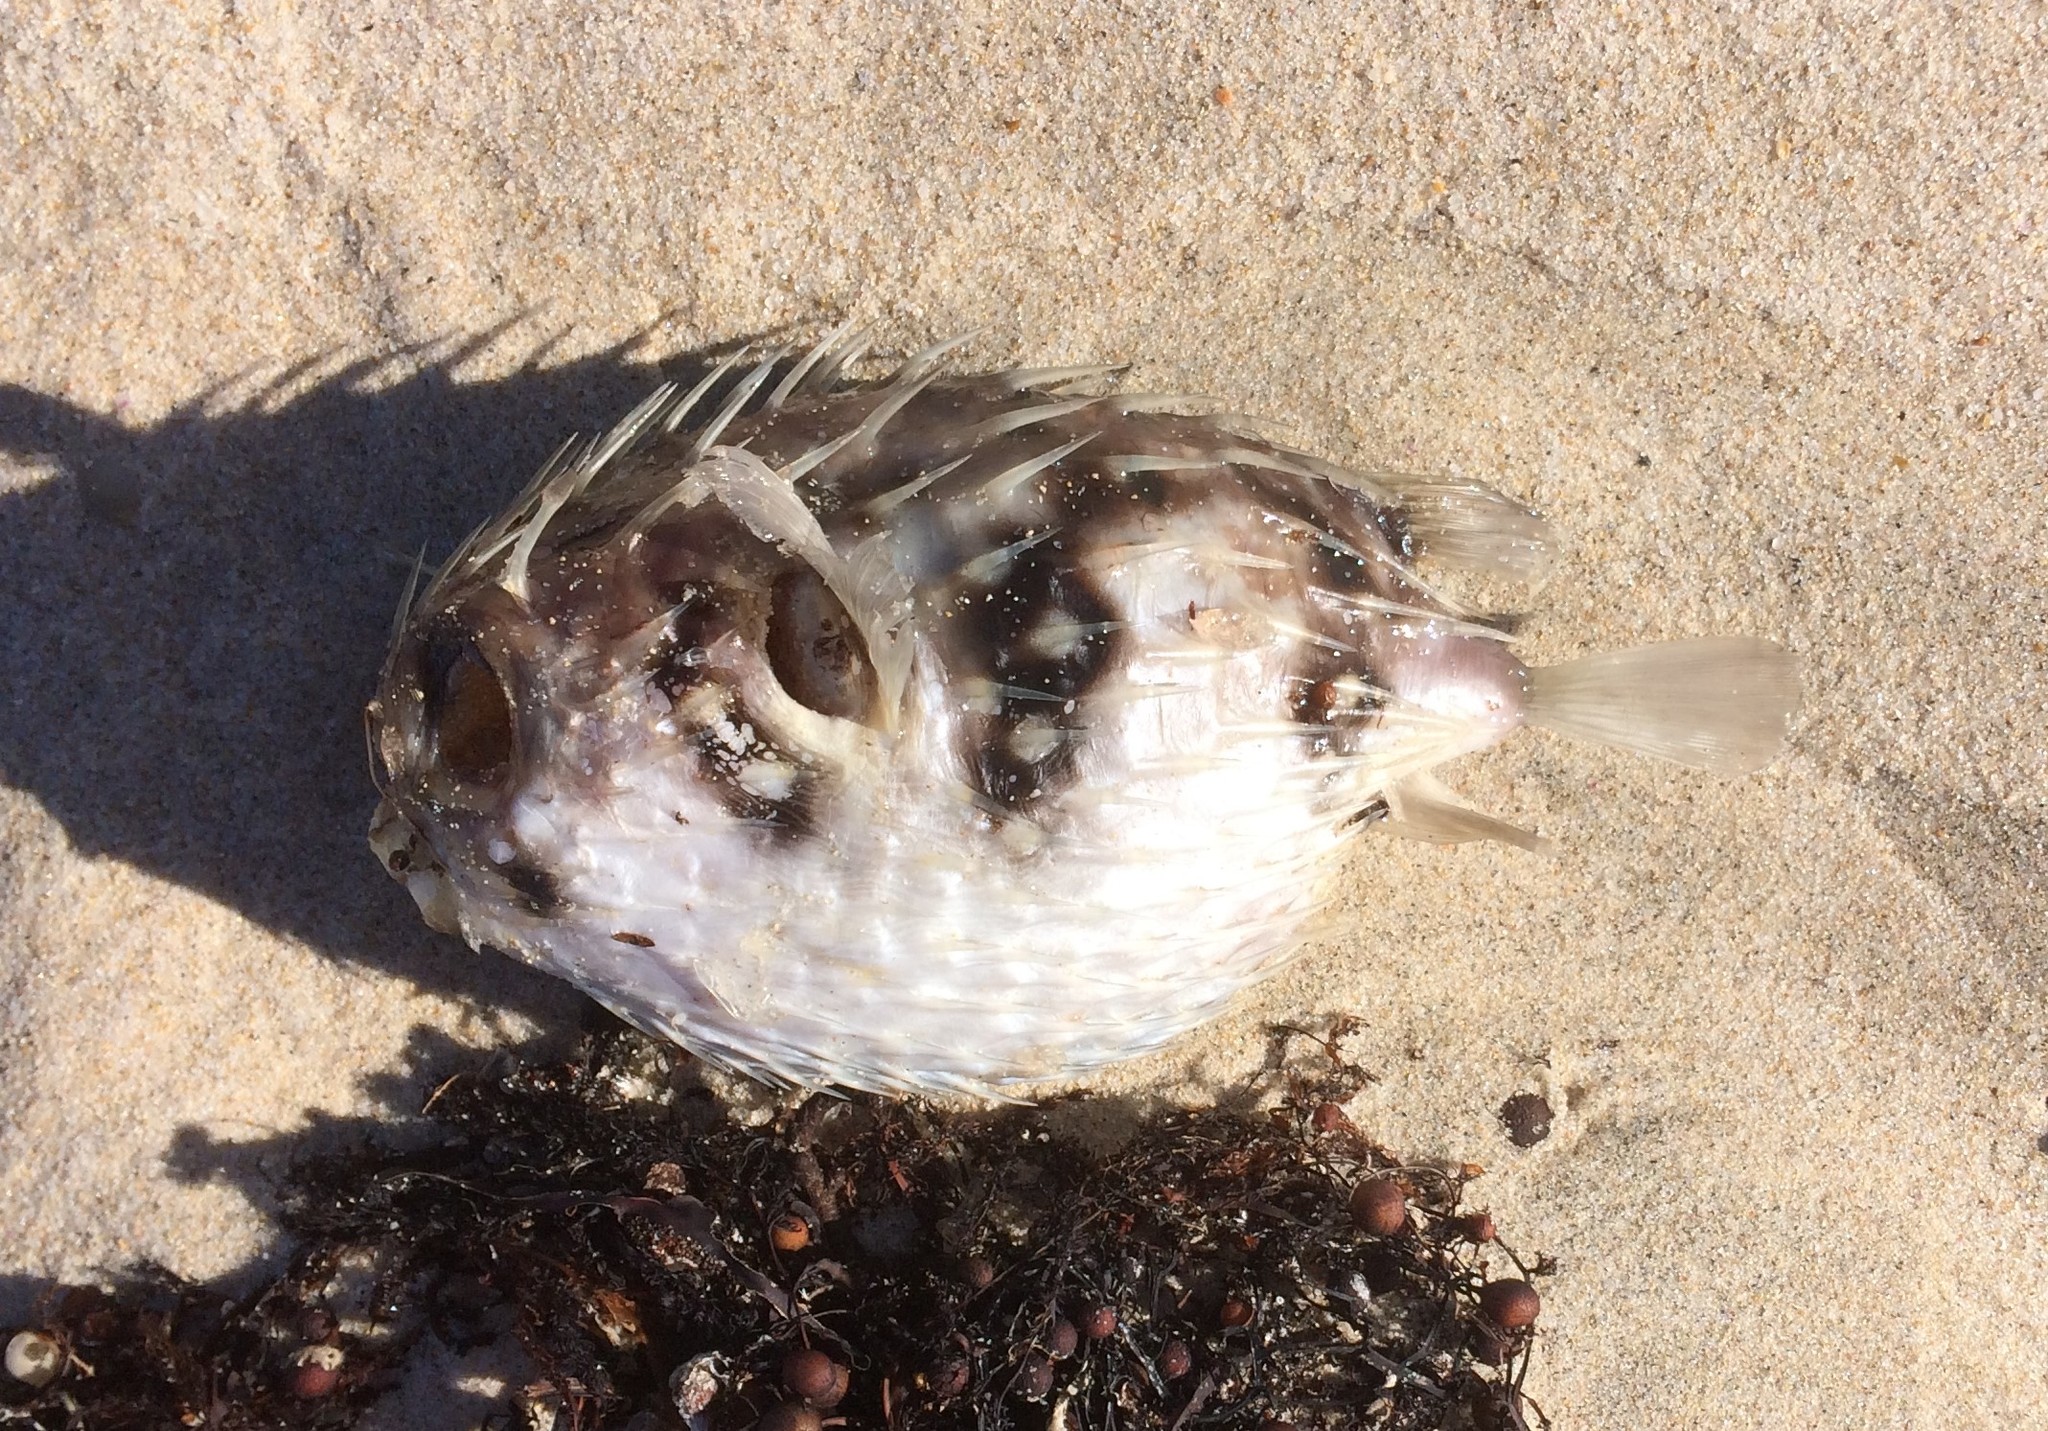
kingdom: Animalia
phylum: Chordata
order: Tetraodontiformes
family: Diodontidae
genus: Diodon
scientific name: Diodon nicthemerus
